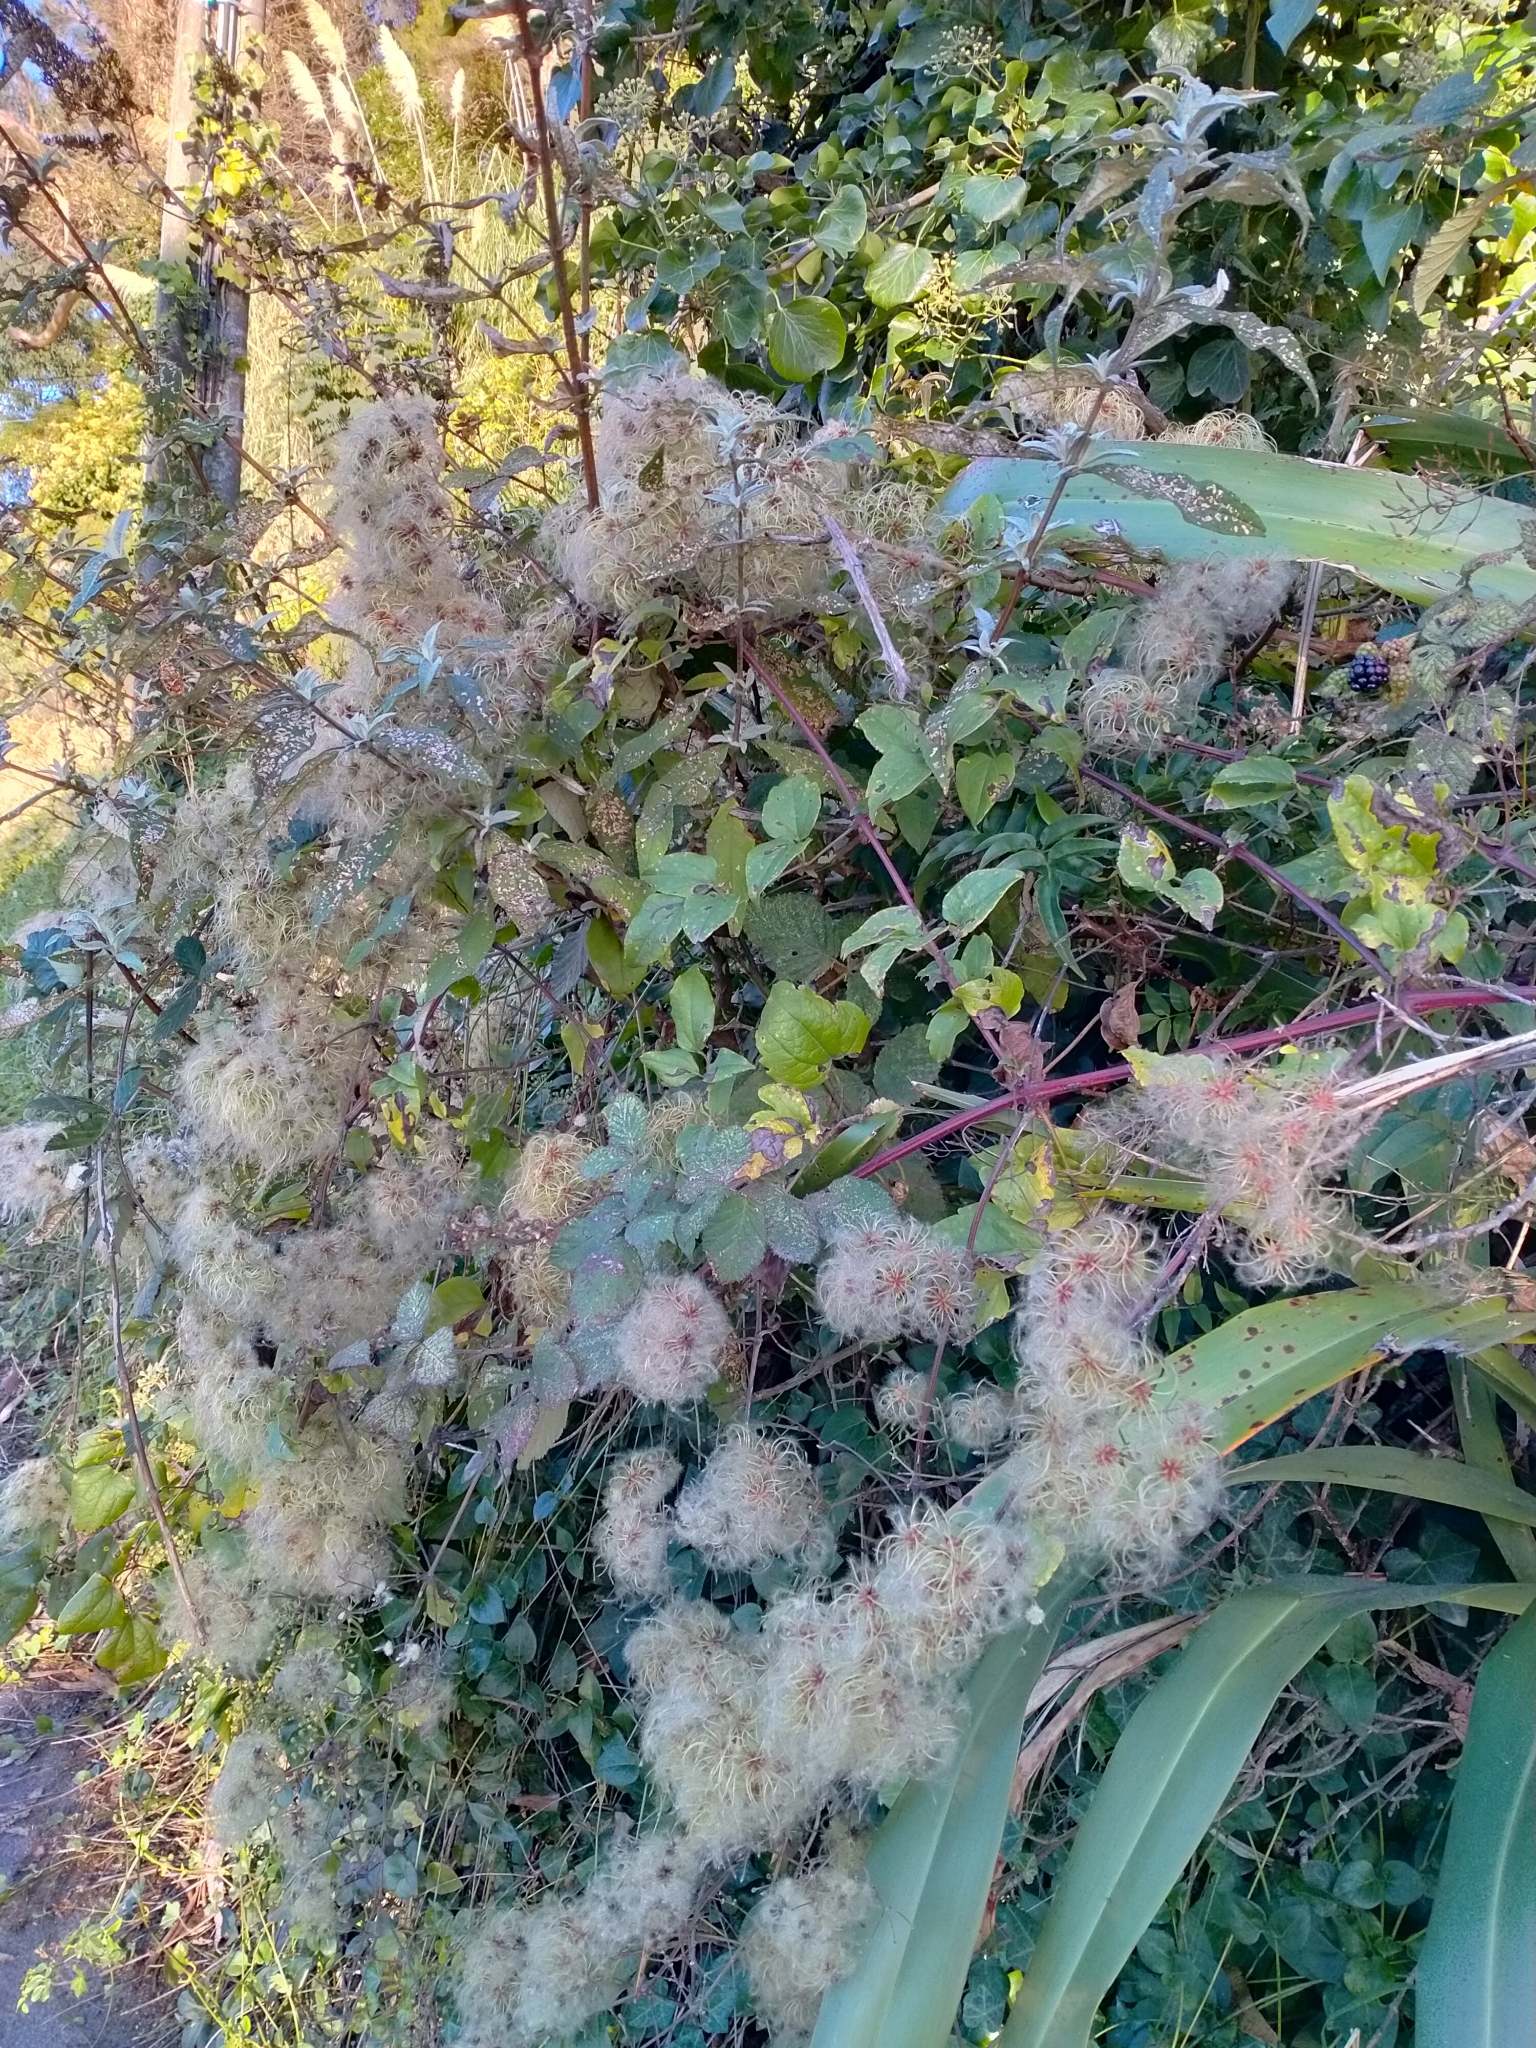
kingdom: Plantae
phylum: Tracheophyta
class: Magnoliopsida
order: Ranunculales
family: Ranunculaceae
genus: Clematis
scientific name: Clematis vitalba
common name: Evergreen clematis
